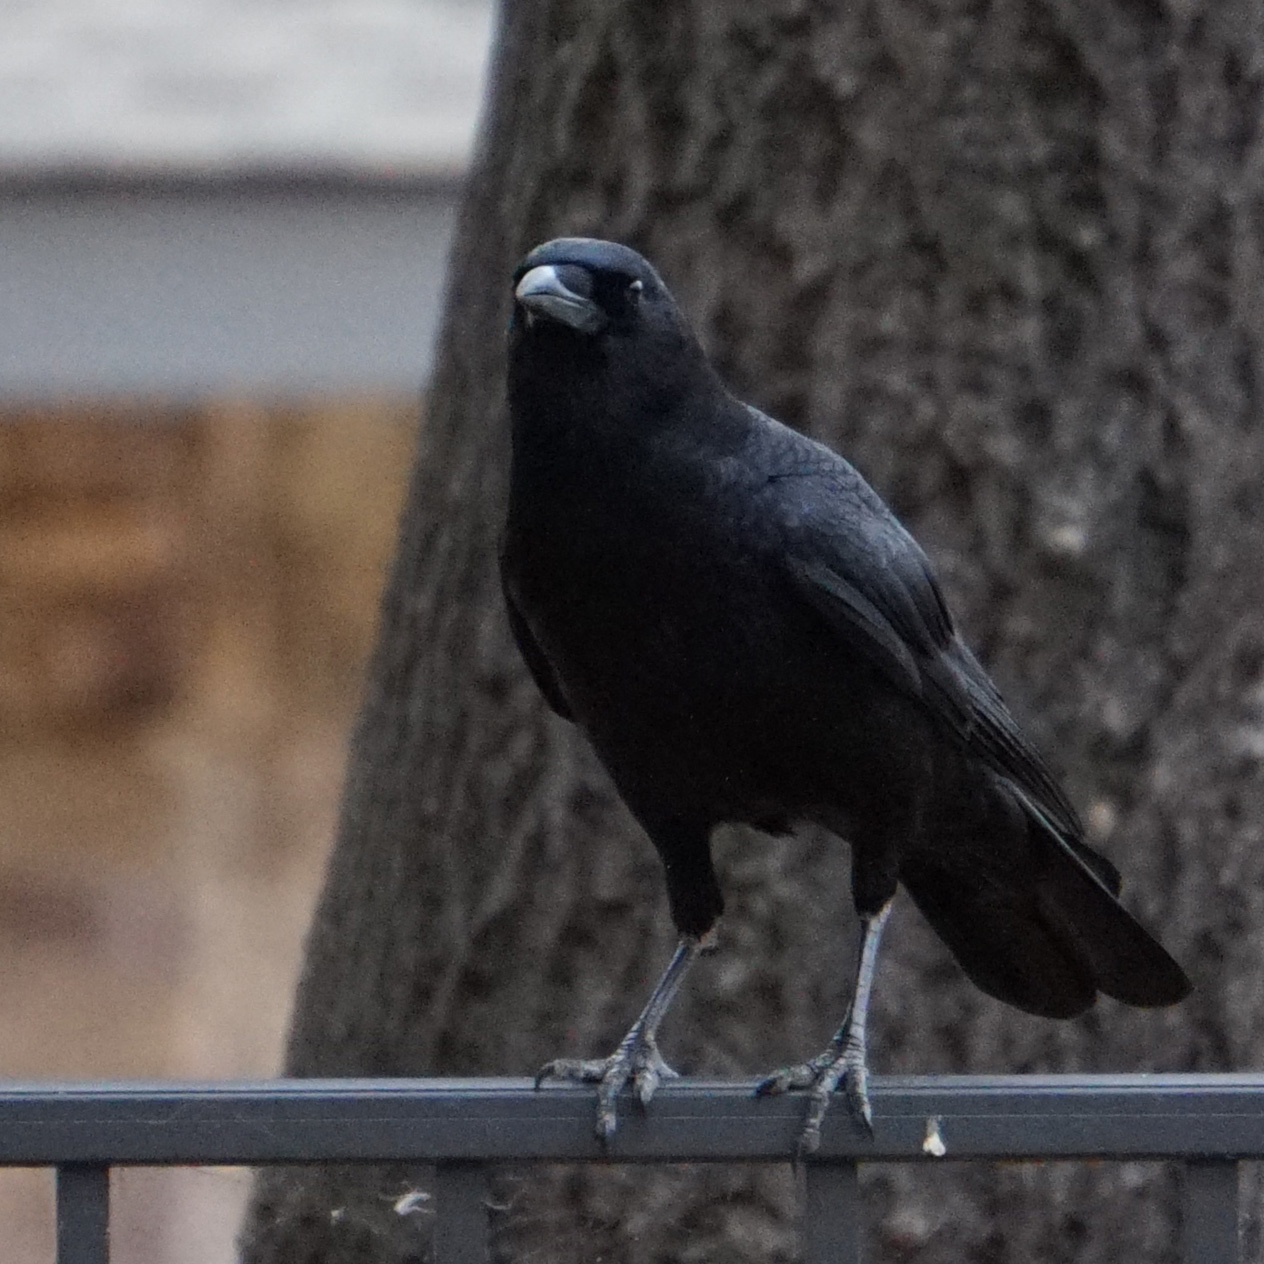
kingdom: Animalia
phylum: Chordata
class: Aves
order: Passeriformes
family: Corvidae
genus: Corvus
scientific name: Corvus brachyrhynchos
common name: American crow
